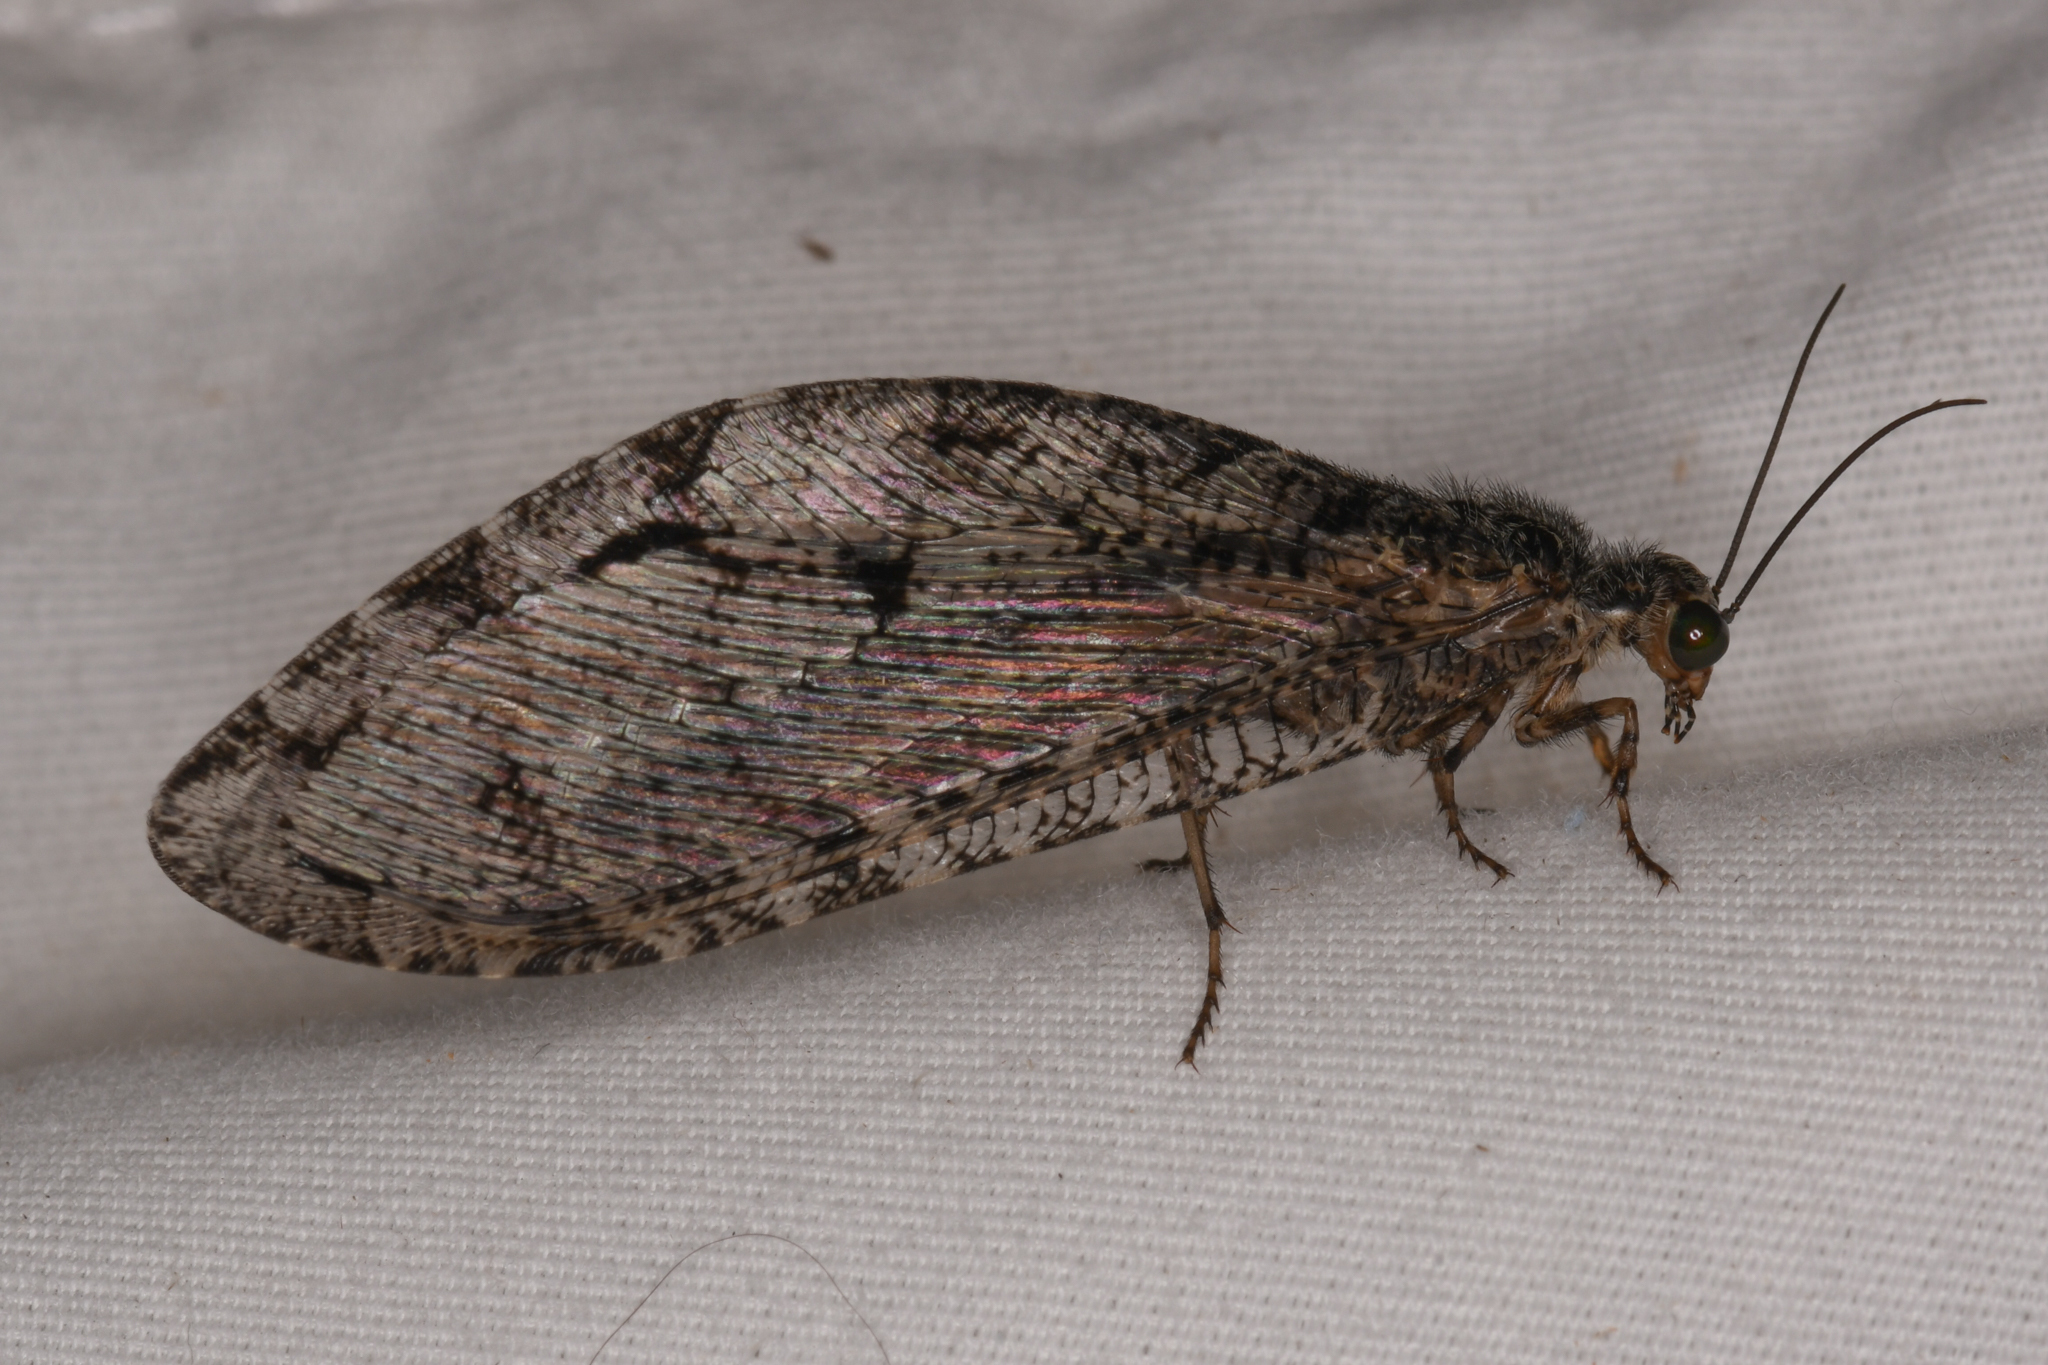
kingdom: Animalia
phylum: Arthropoda
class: Insecta
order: Neuroptera
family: Ithonidae
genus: Polystoechotes
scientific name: Polystoechotes punctata
